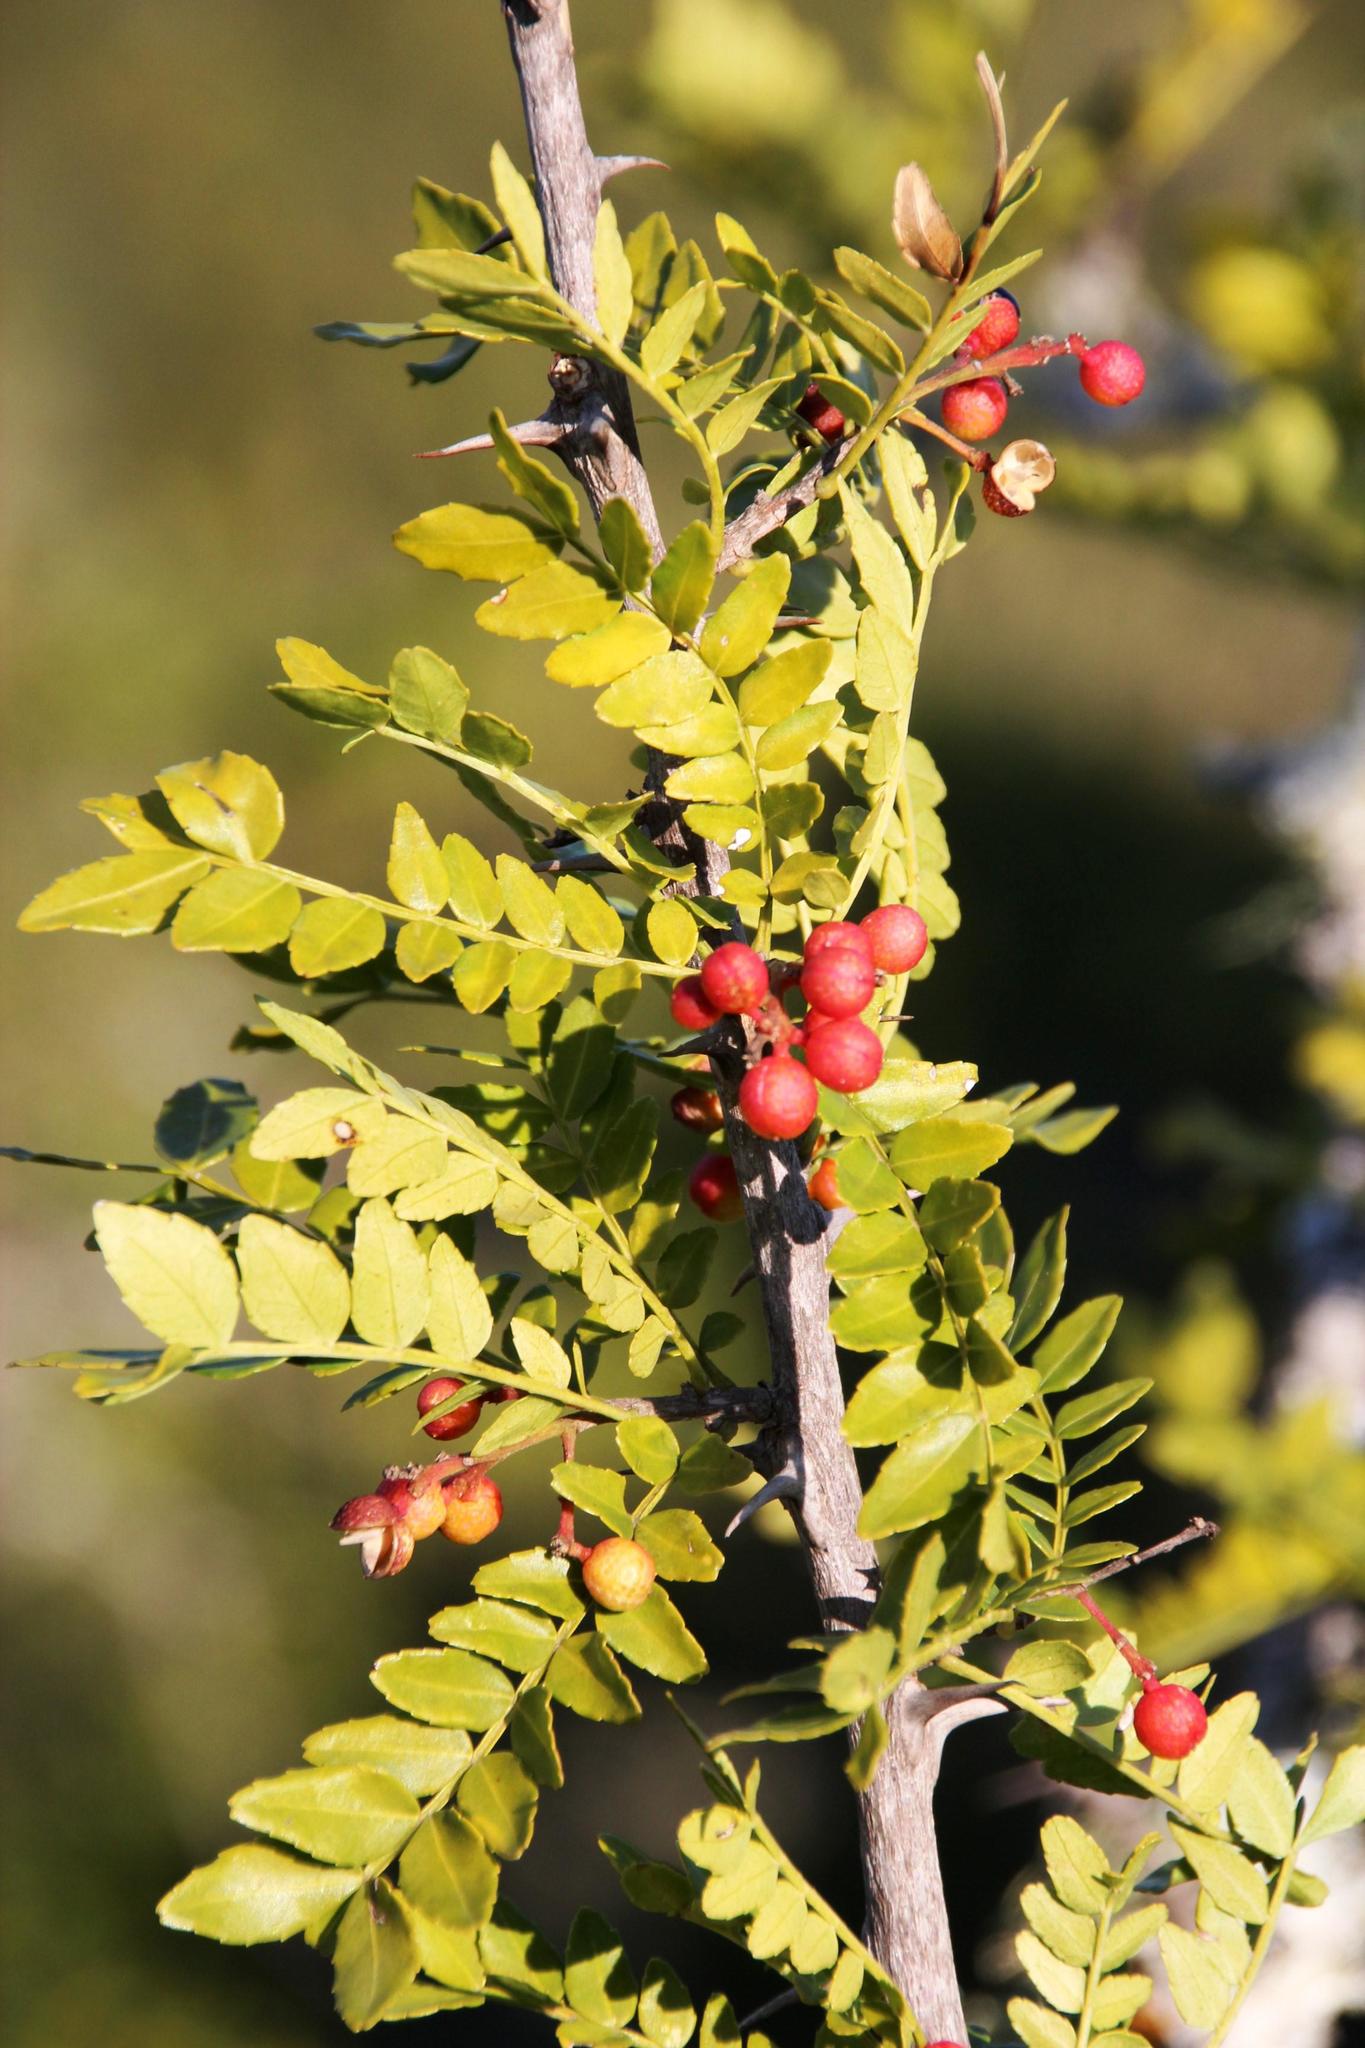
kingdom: Plantae
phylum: Tracheophyta
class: Magnoliopsida
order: Sapindales
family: Rutaceae
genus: Zanthoxylum
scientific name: Zanthoxylum capense
